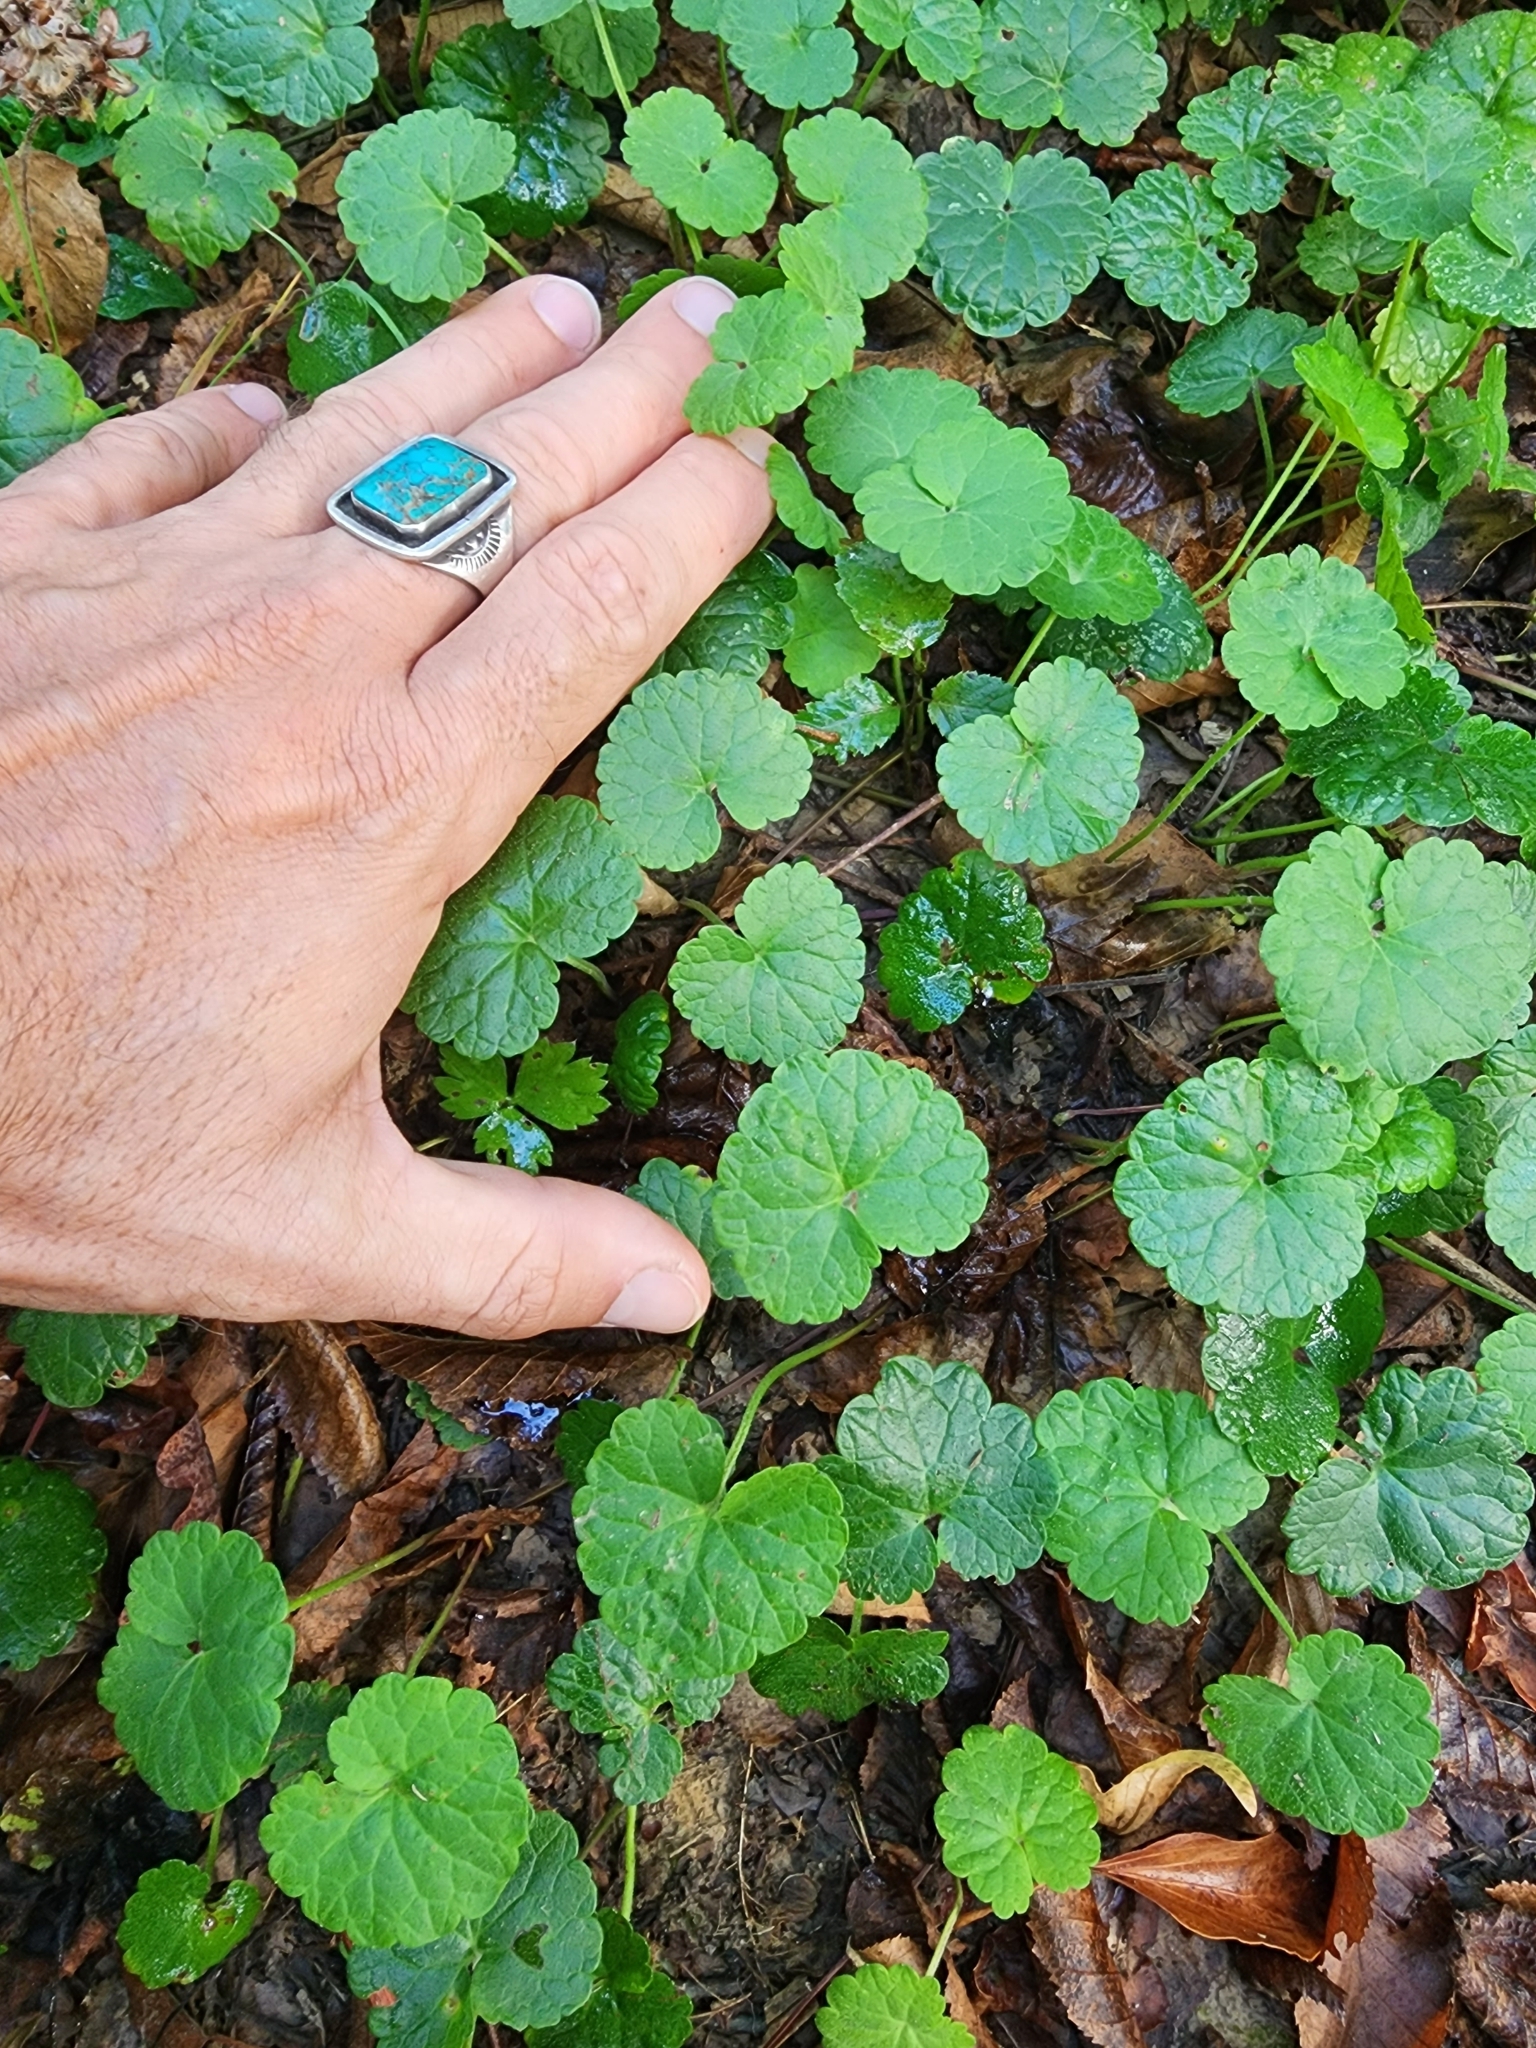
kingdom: Plantae
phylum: Tracheophyta
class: Magnoliopsida
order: Lamiales
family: Lamiaceae
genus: Glechoma
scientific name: Glechoma hederacea
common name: Ground ivy
